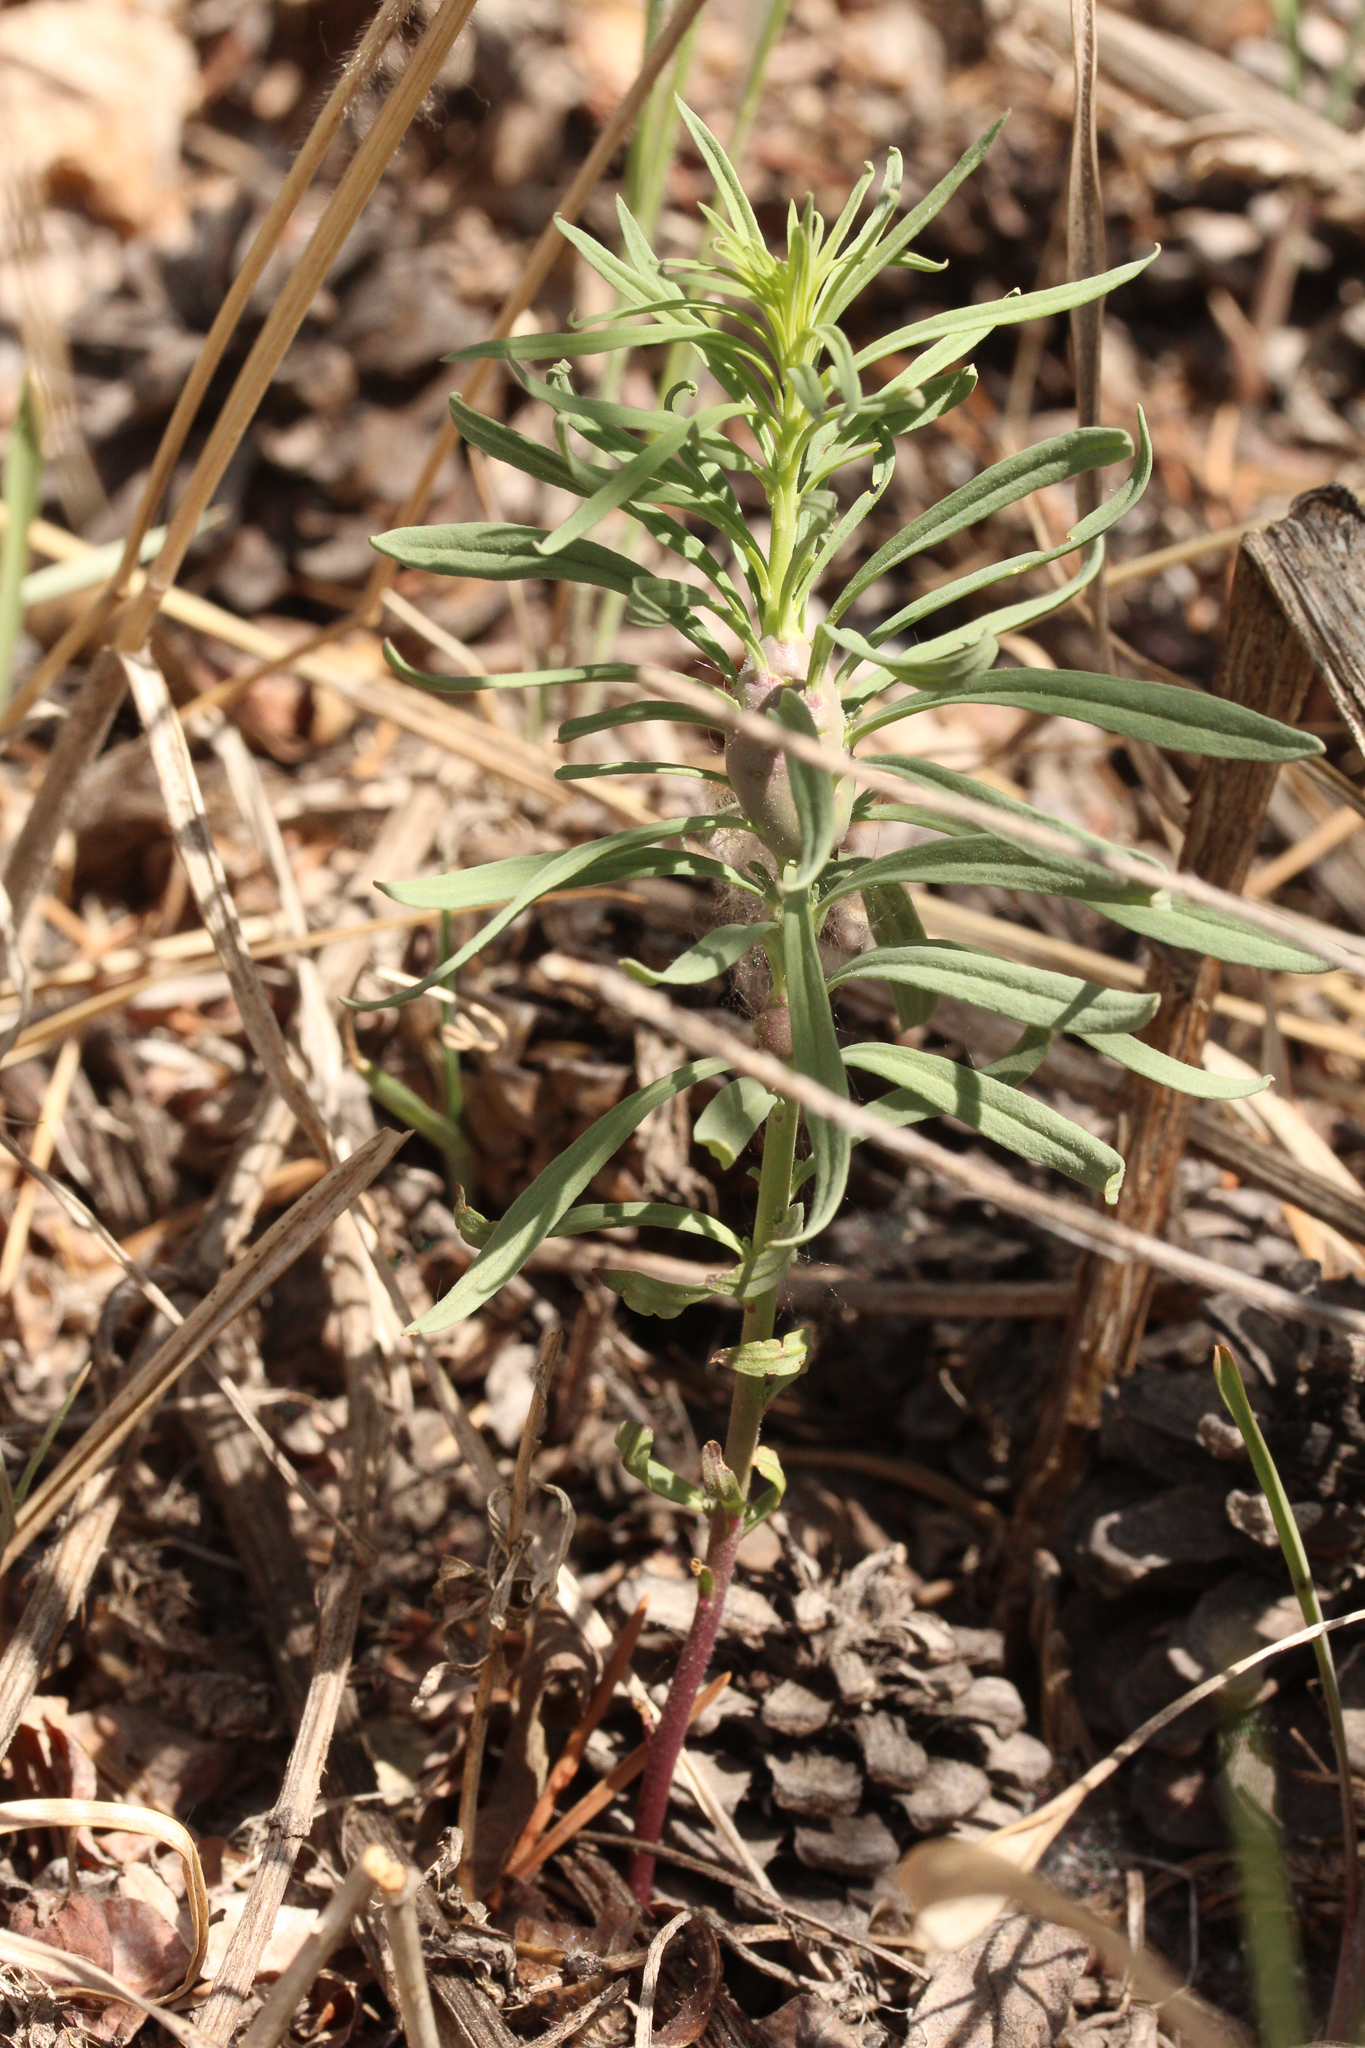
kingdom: Plantae
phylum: Tracheophyta
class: Magnoliopsida
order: Lamiales
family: Plantaginaceae
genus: Linaria
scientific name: Linaria vulgaris
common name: Butter and eggs
